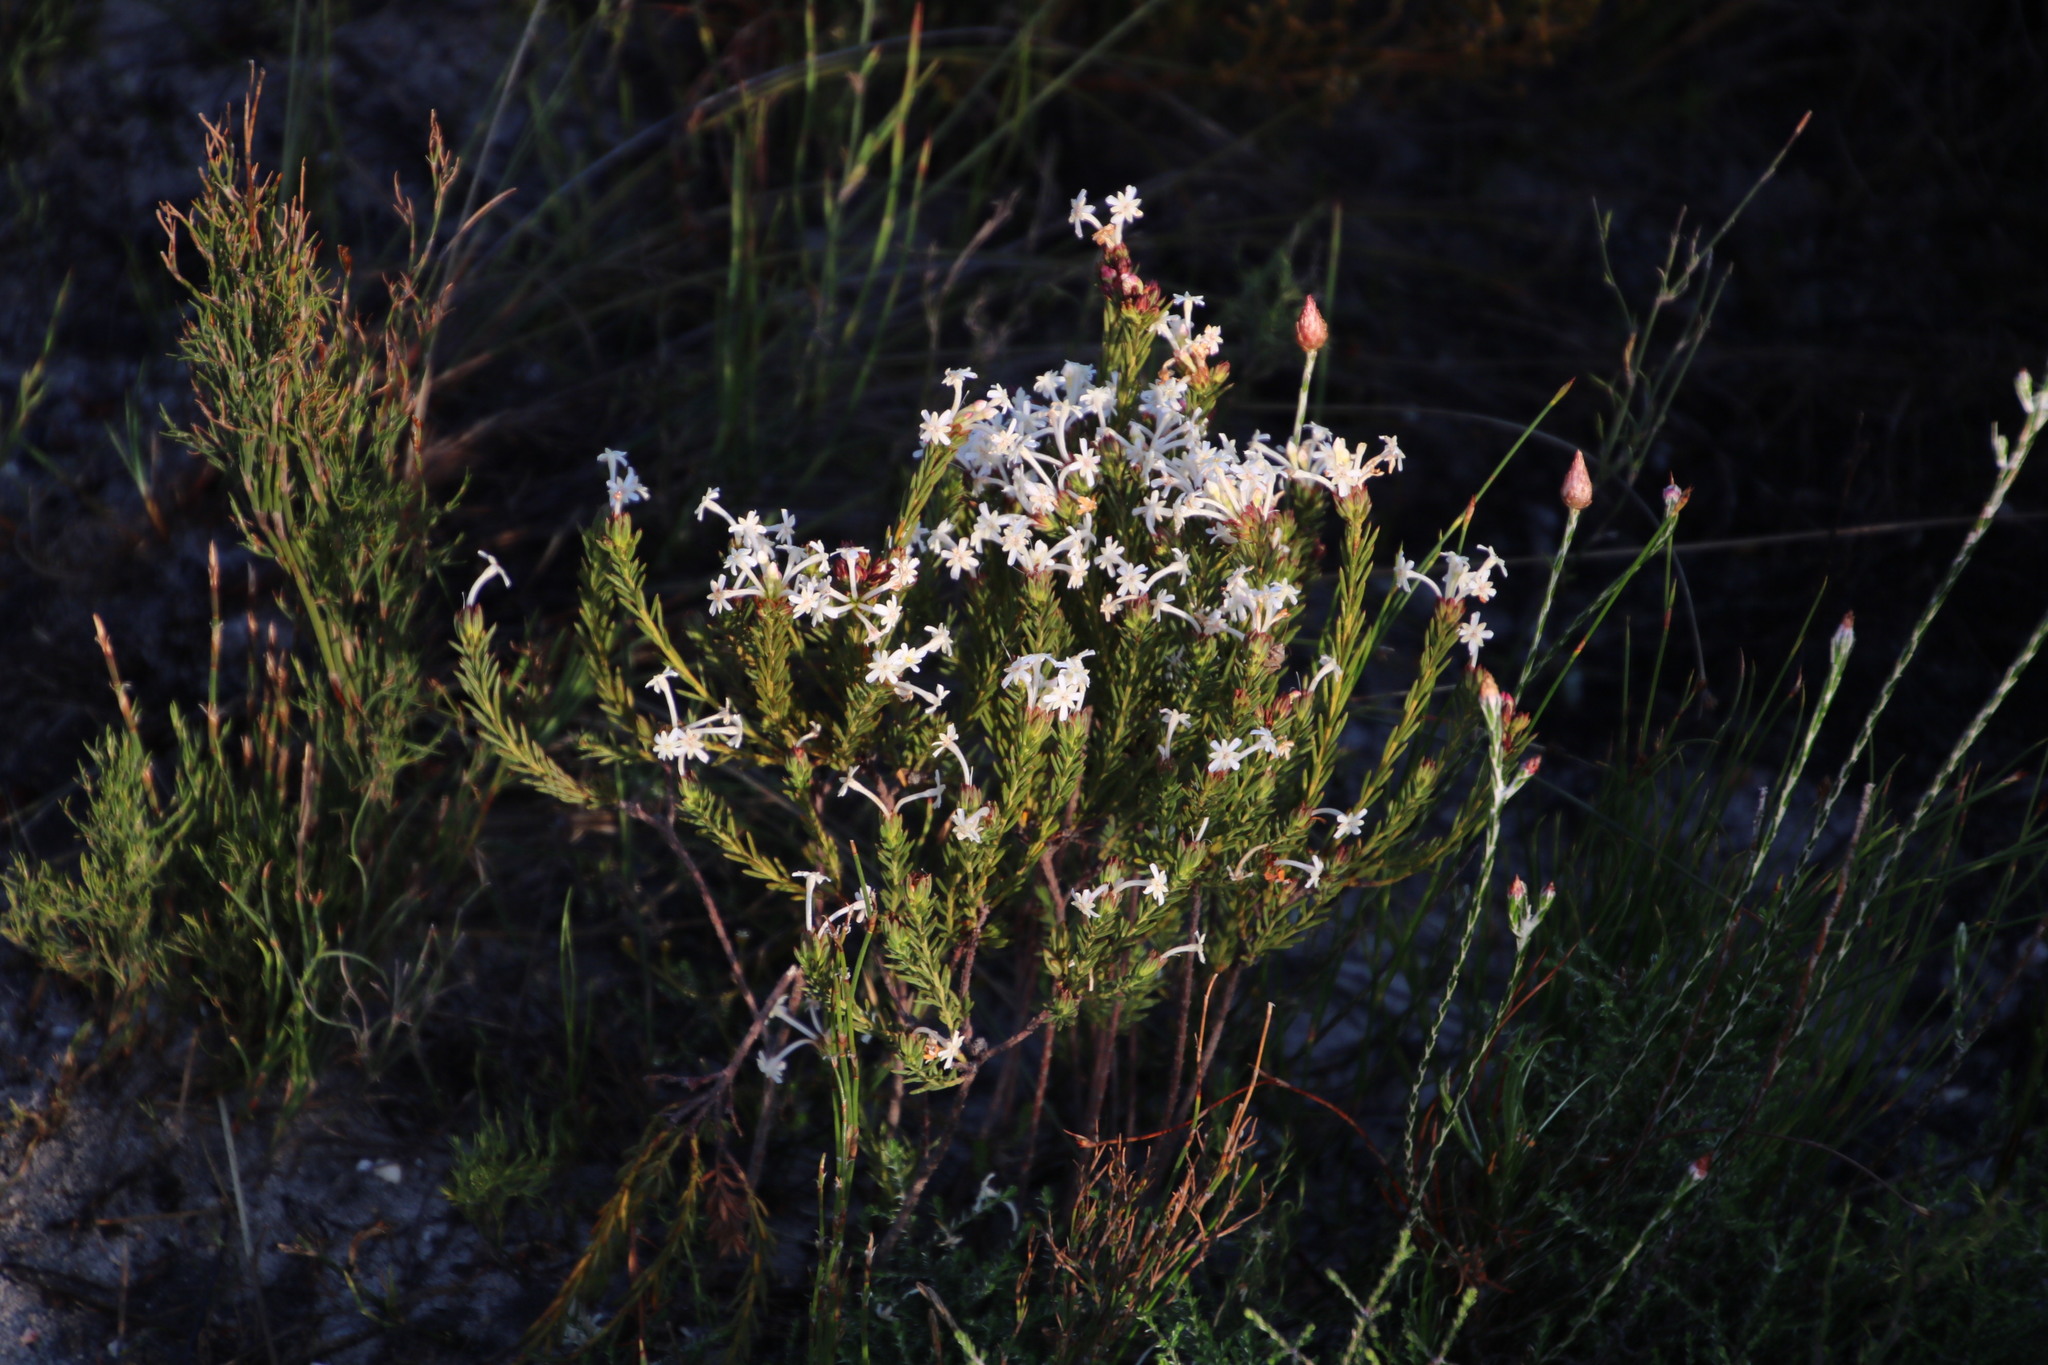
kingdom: Plantae
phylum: Tracheophyta
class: Magnoliopsida
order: Malvales
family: Thymelaeaceae
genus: Gnidia
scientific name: Gnidia pinifolia
